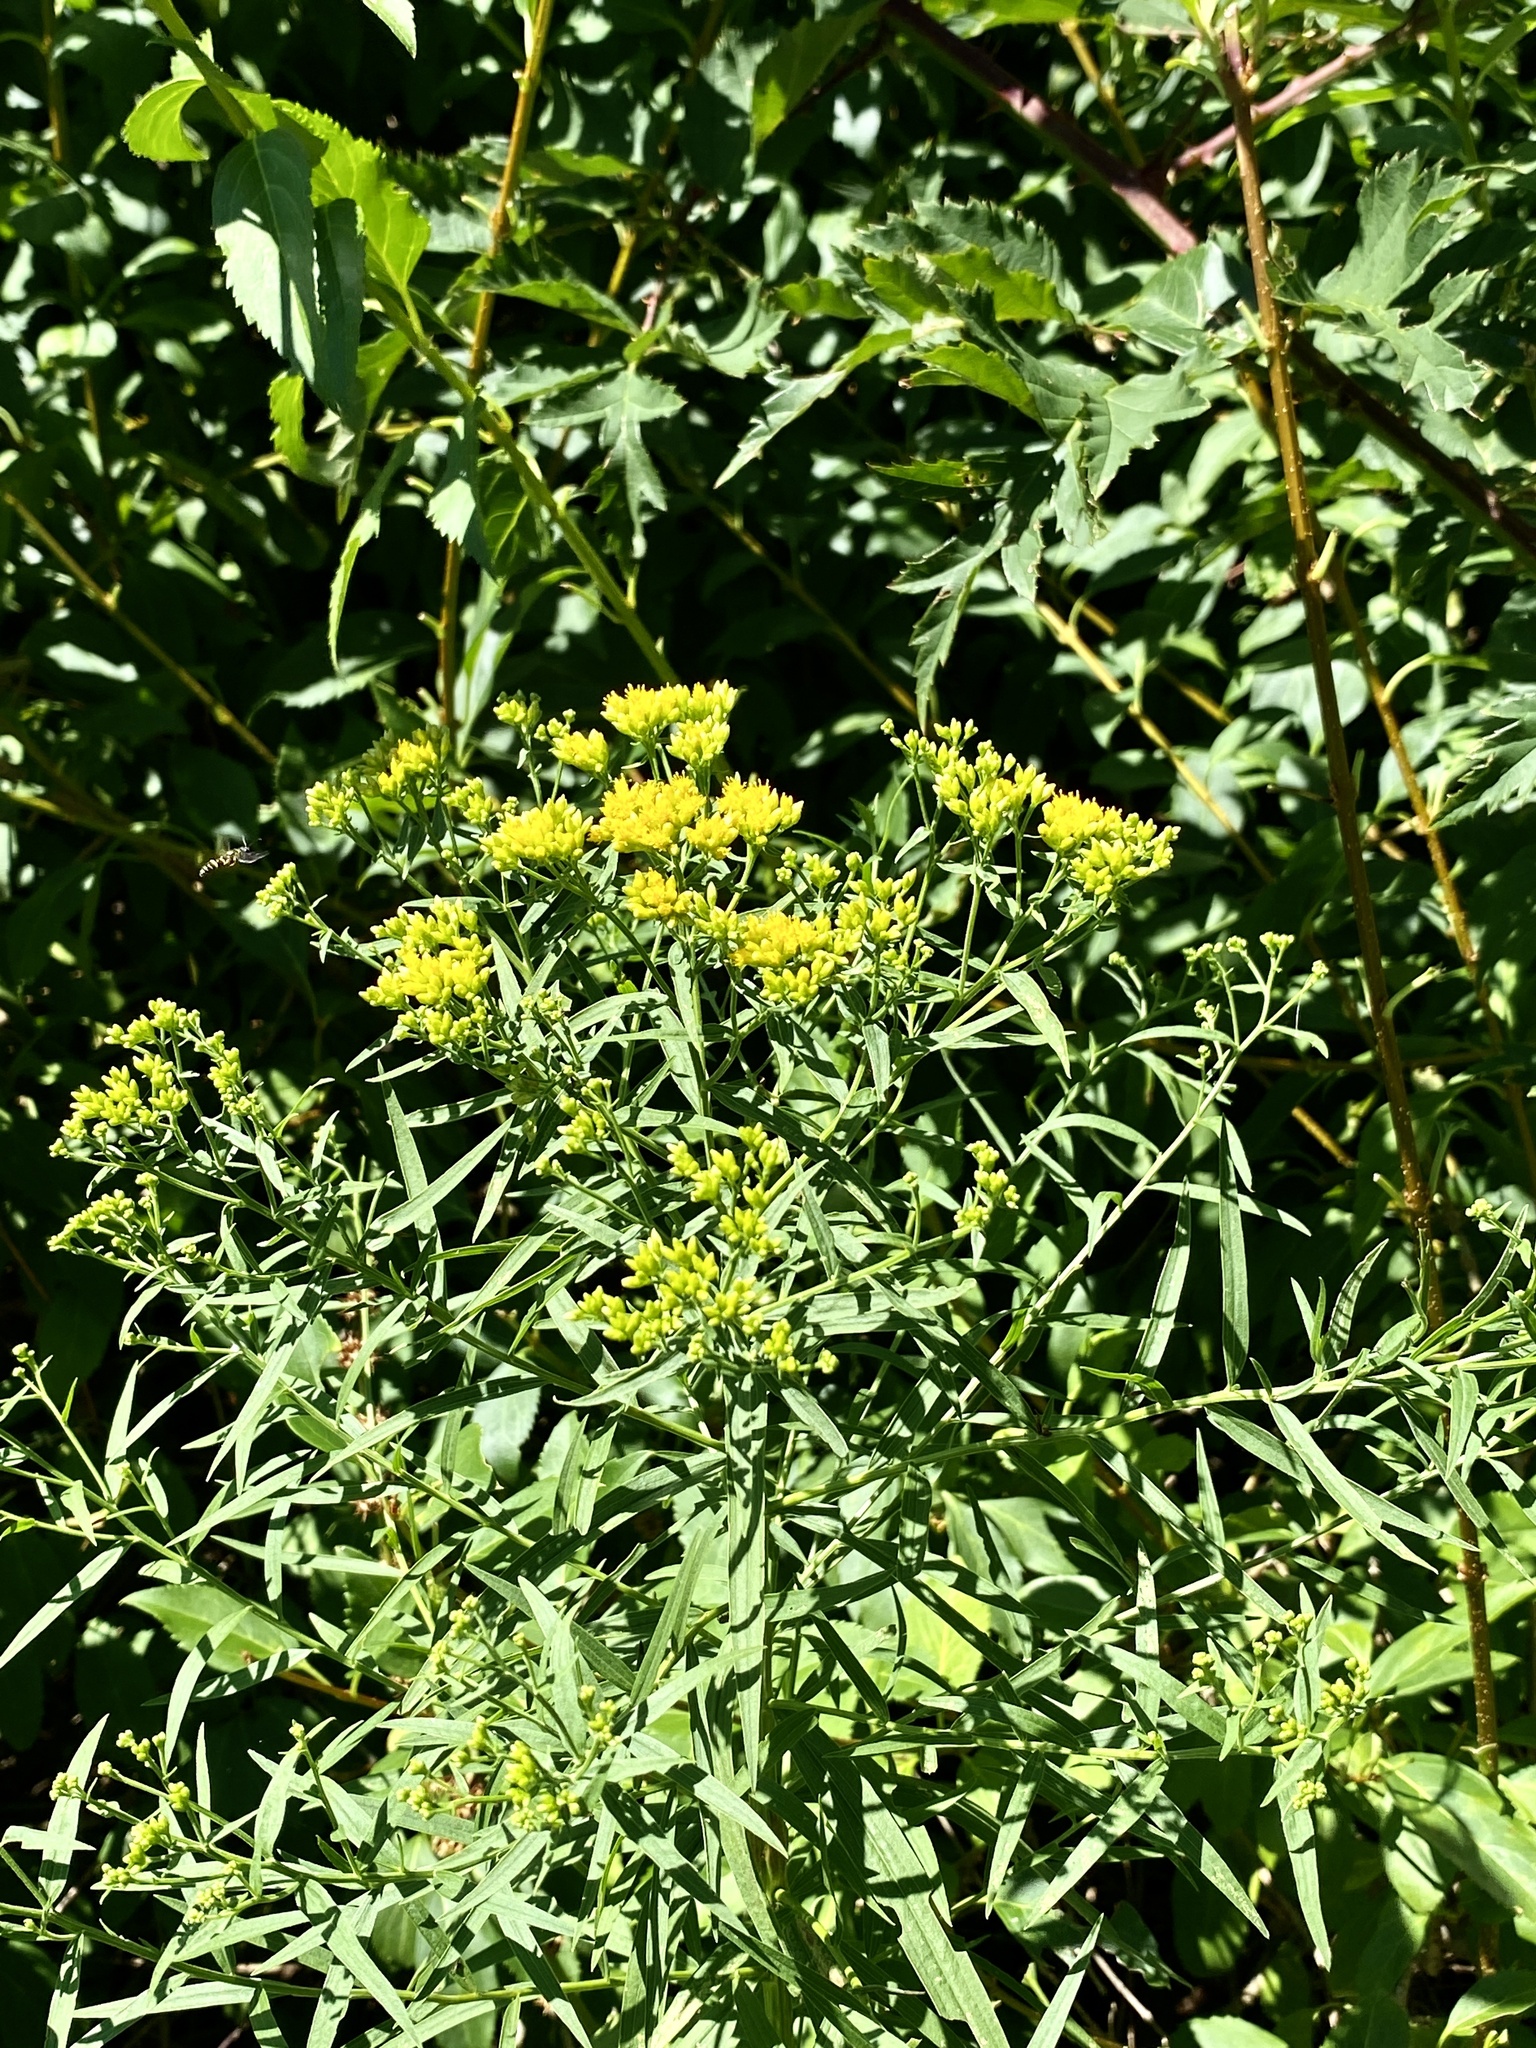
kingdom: Plantae
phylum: Tracheophyta
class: Magnoliopsida
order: Asterales
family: Asteraceae
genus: Euthamia
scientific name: Euthamia graminifolia
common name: Common goldentop
